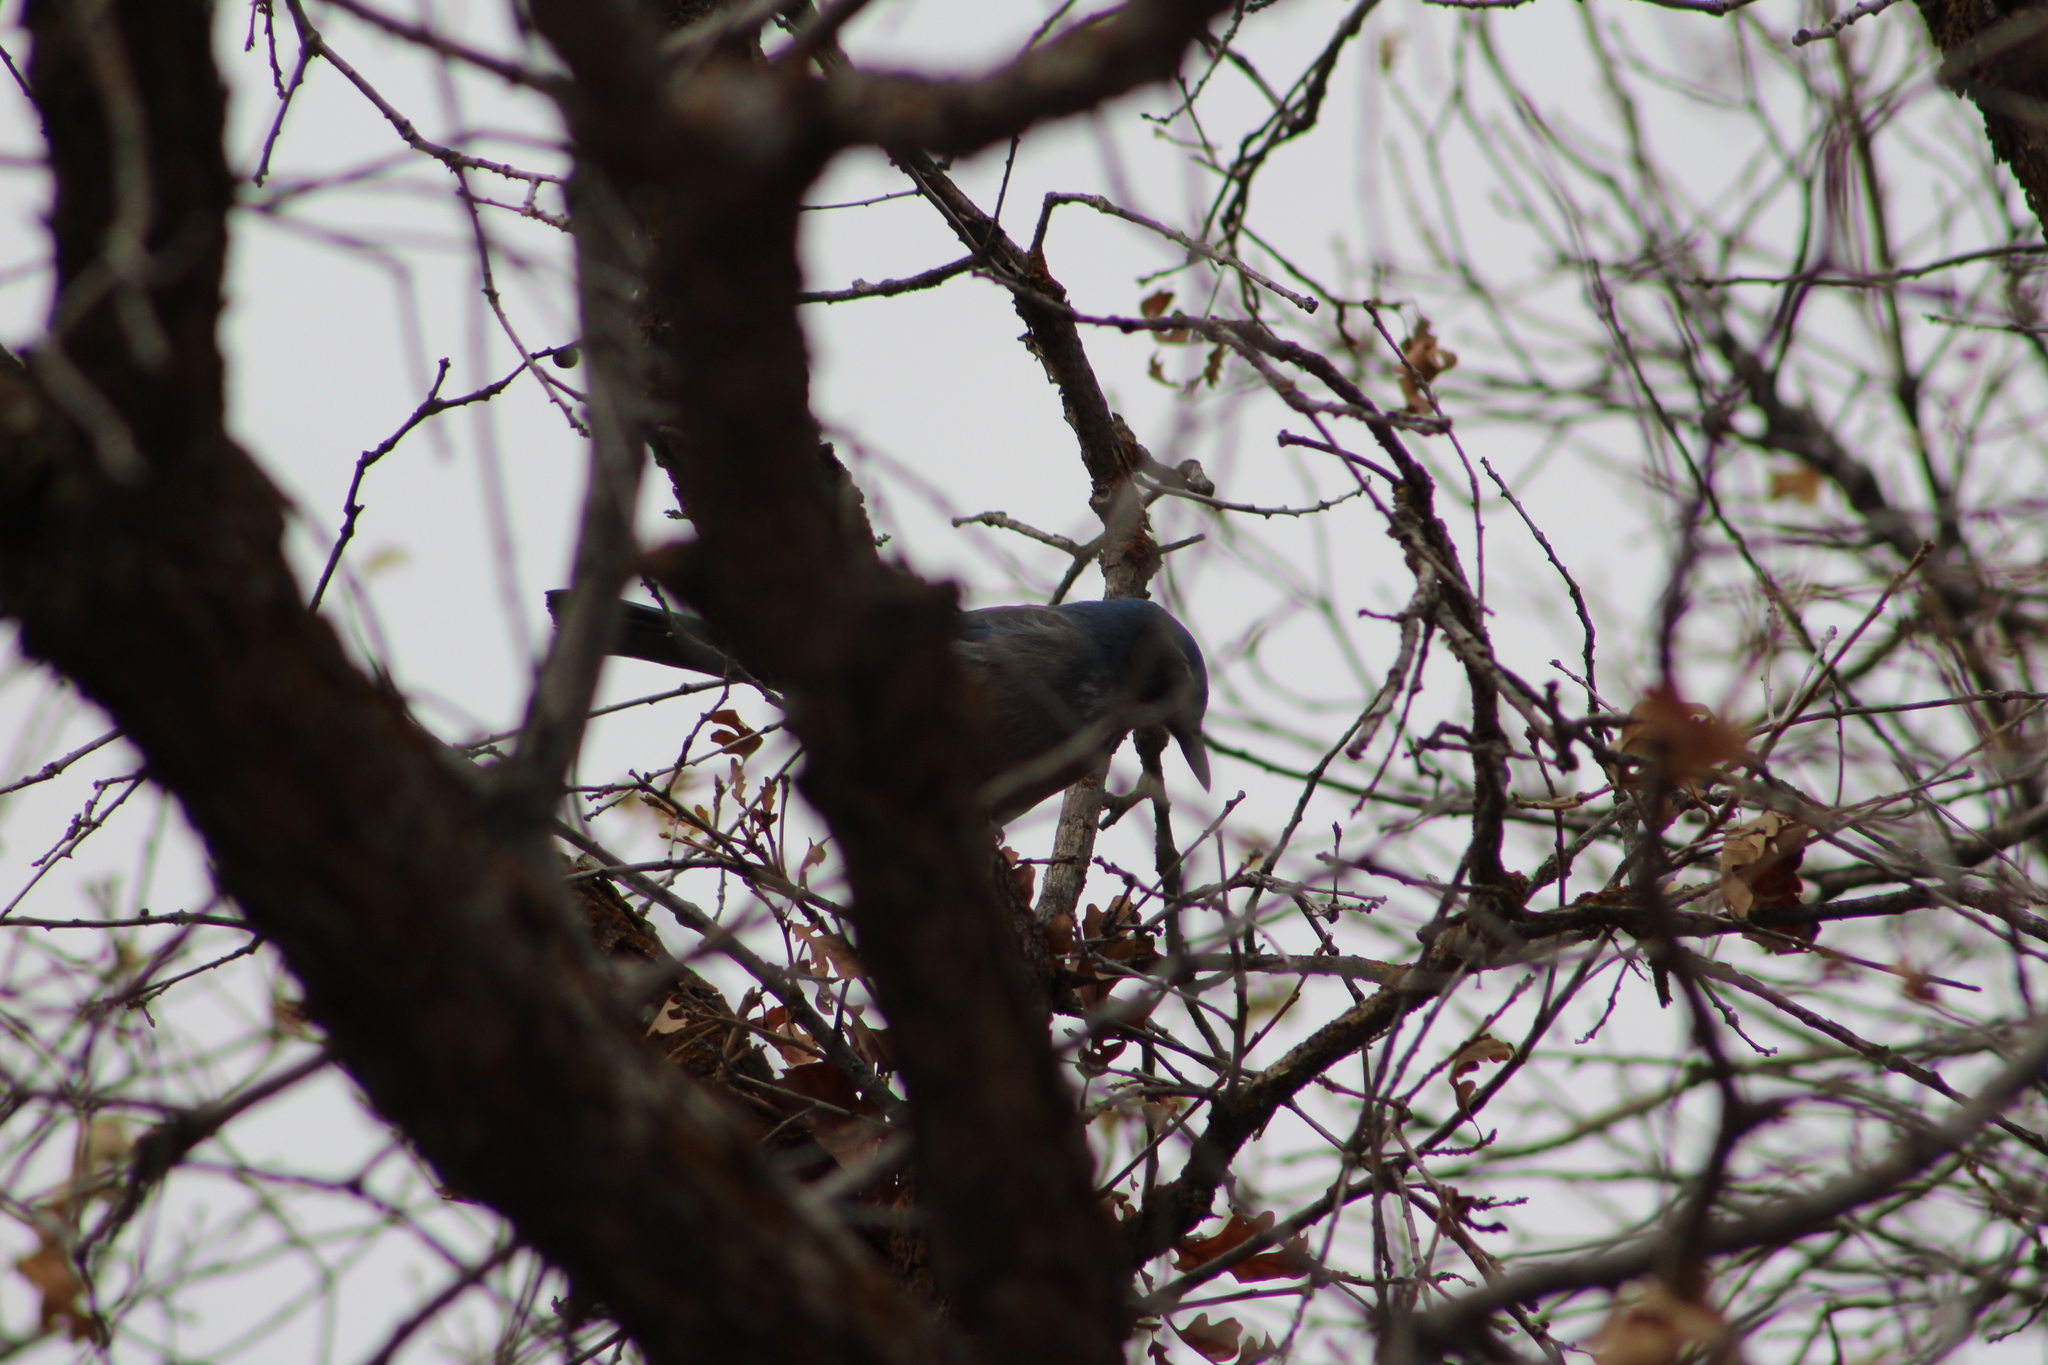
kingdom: Animalia
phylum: Chordata
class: Aves
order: Passeriformes
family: Corvidae
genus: Aphelocoma
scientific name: Aphelocoma woodhouseii
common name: Woodhouse's scrub-jay
